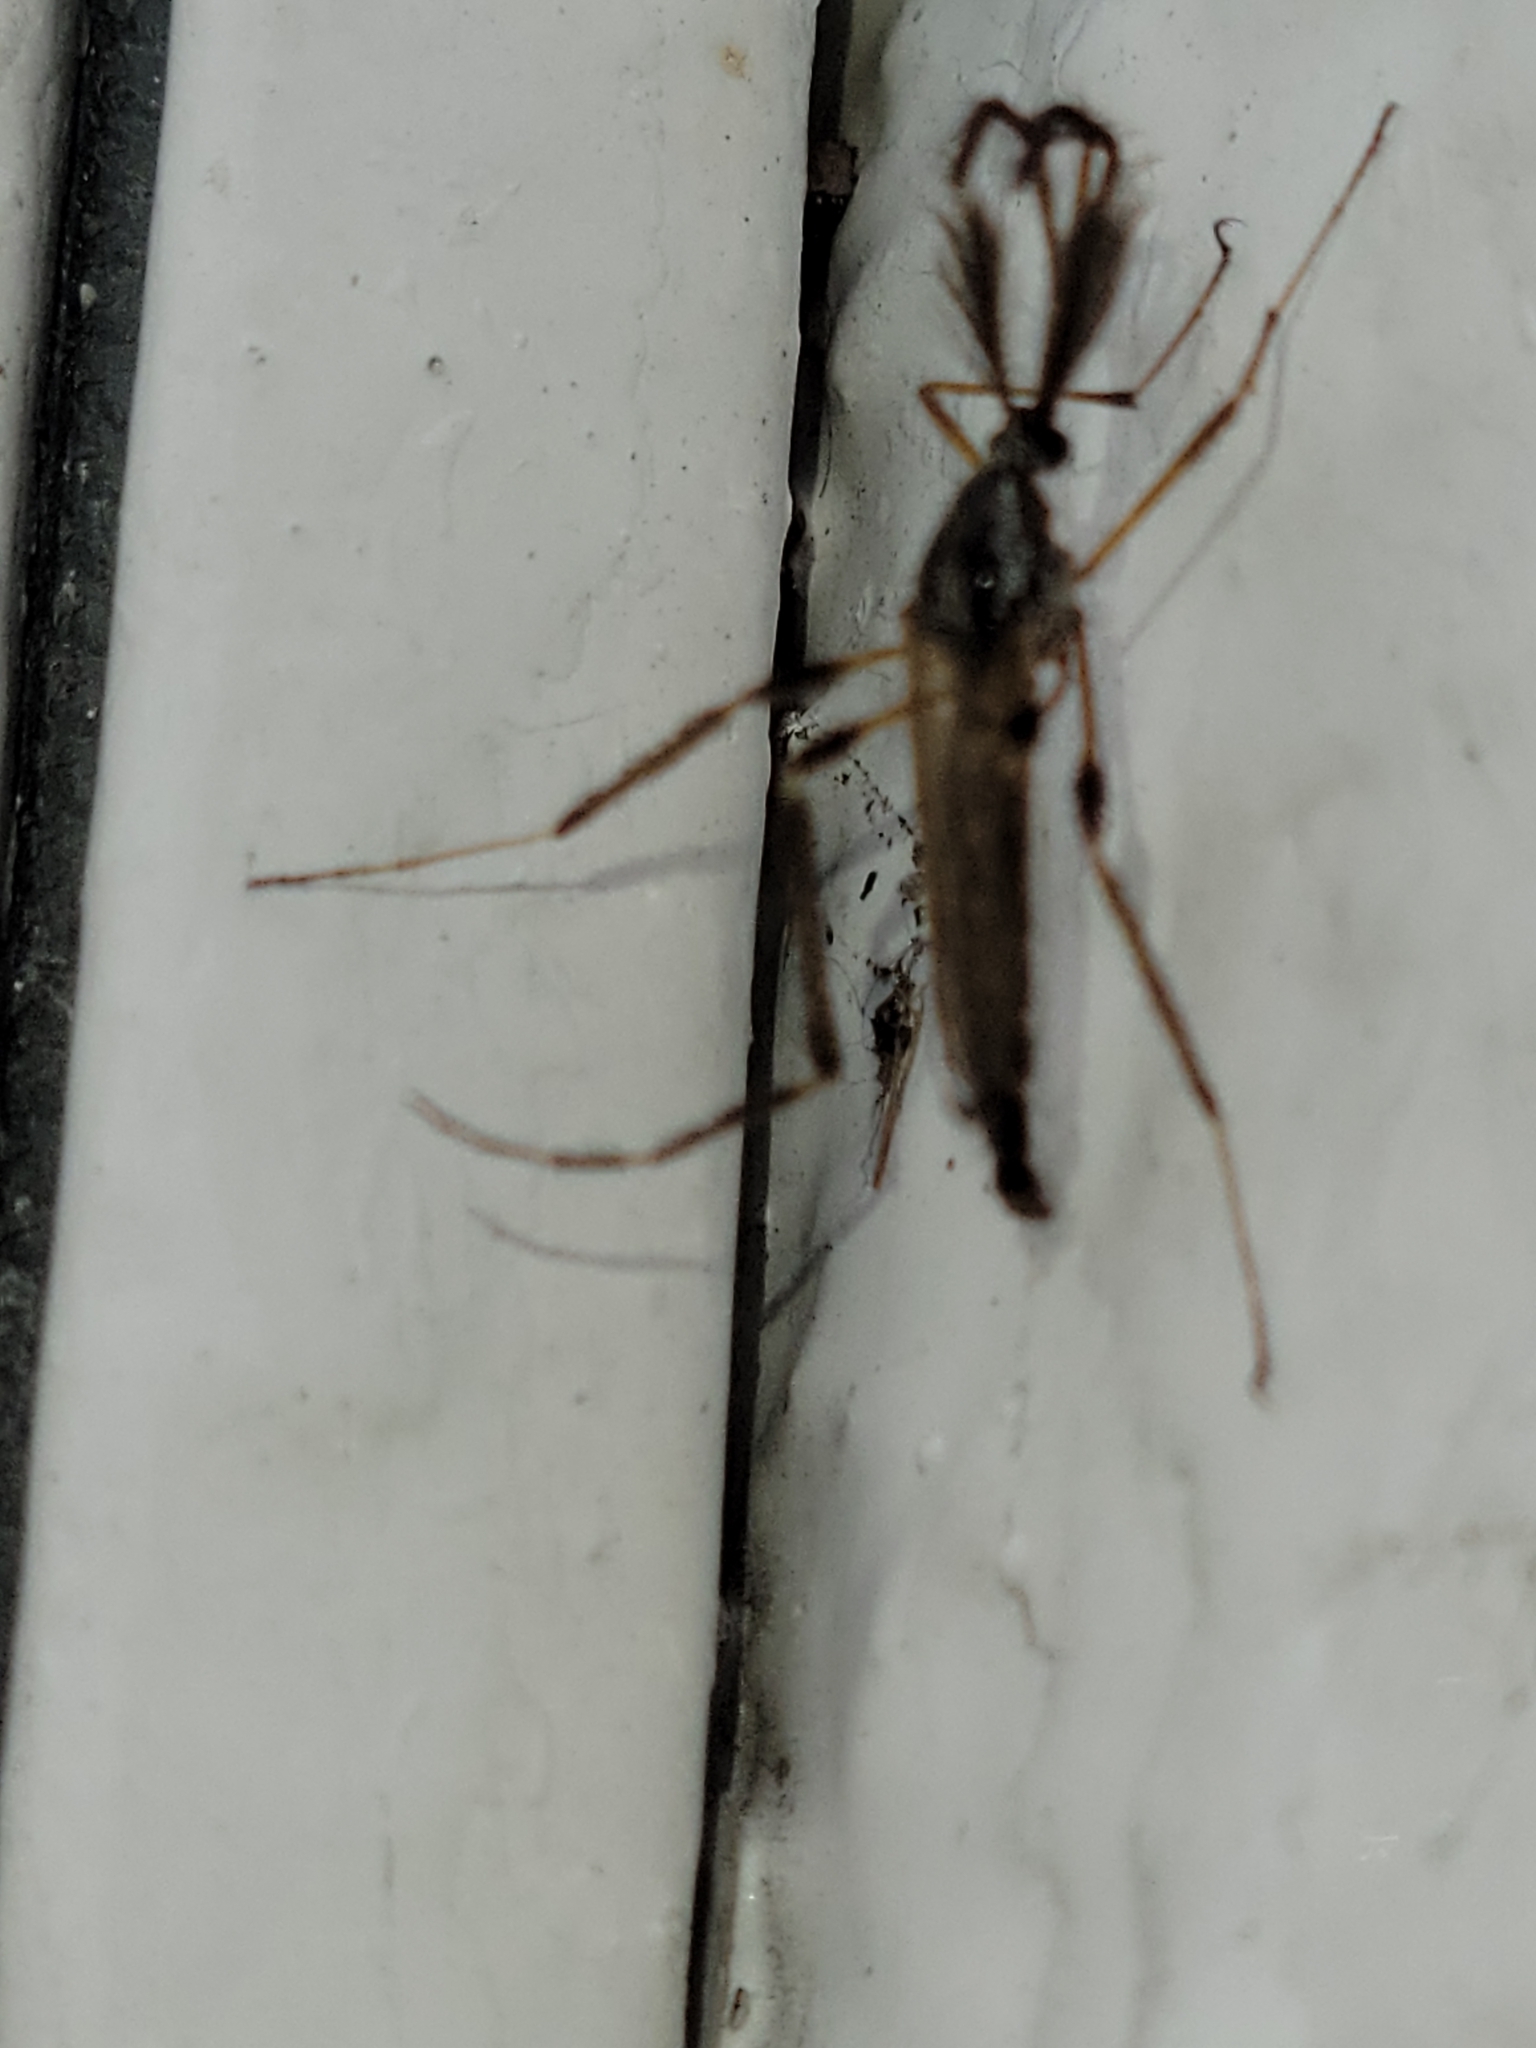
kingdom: Animalia
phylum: Arthropoda
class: Insecta
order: Diptera
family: Culicidae
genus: Psorophora
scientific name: Psorophora ciliata
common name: Gallinipper
